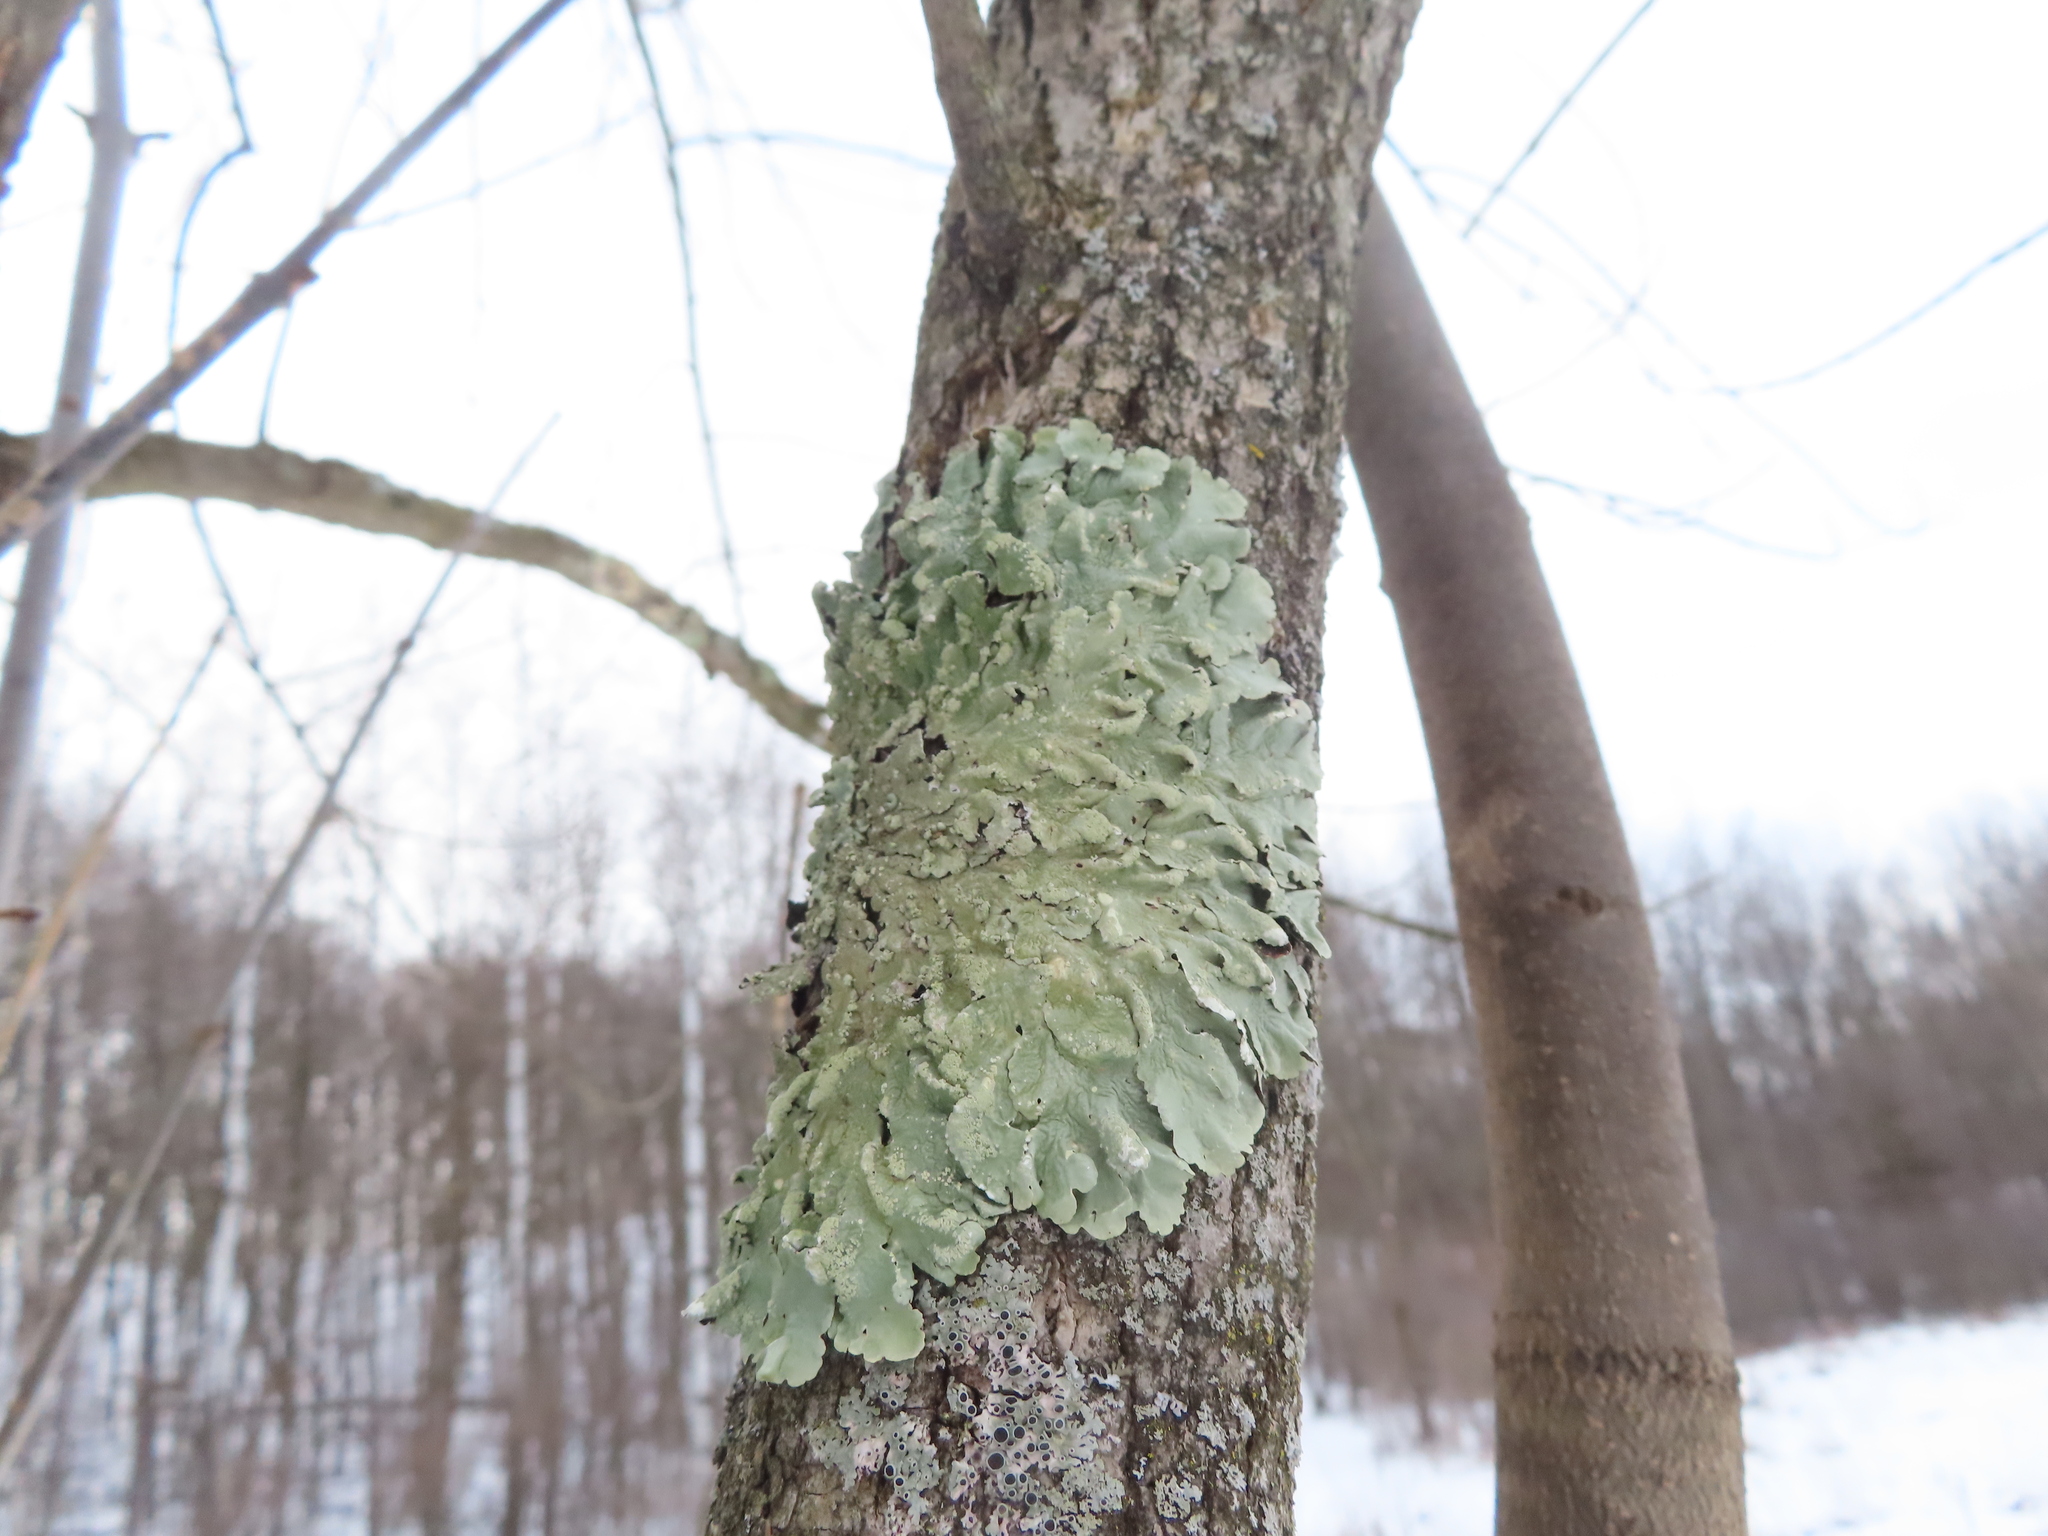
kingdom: Fungi
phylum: Ascomycota
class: Lecanoromycetes
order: Lecanorales
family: Parmeliaceae
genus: Flavoparmelia
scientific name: Flavoparmelia caperata
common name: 40-mile per hour lichen
